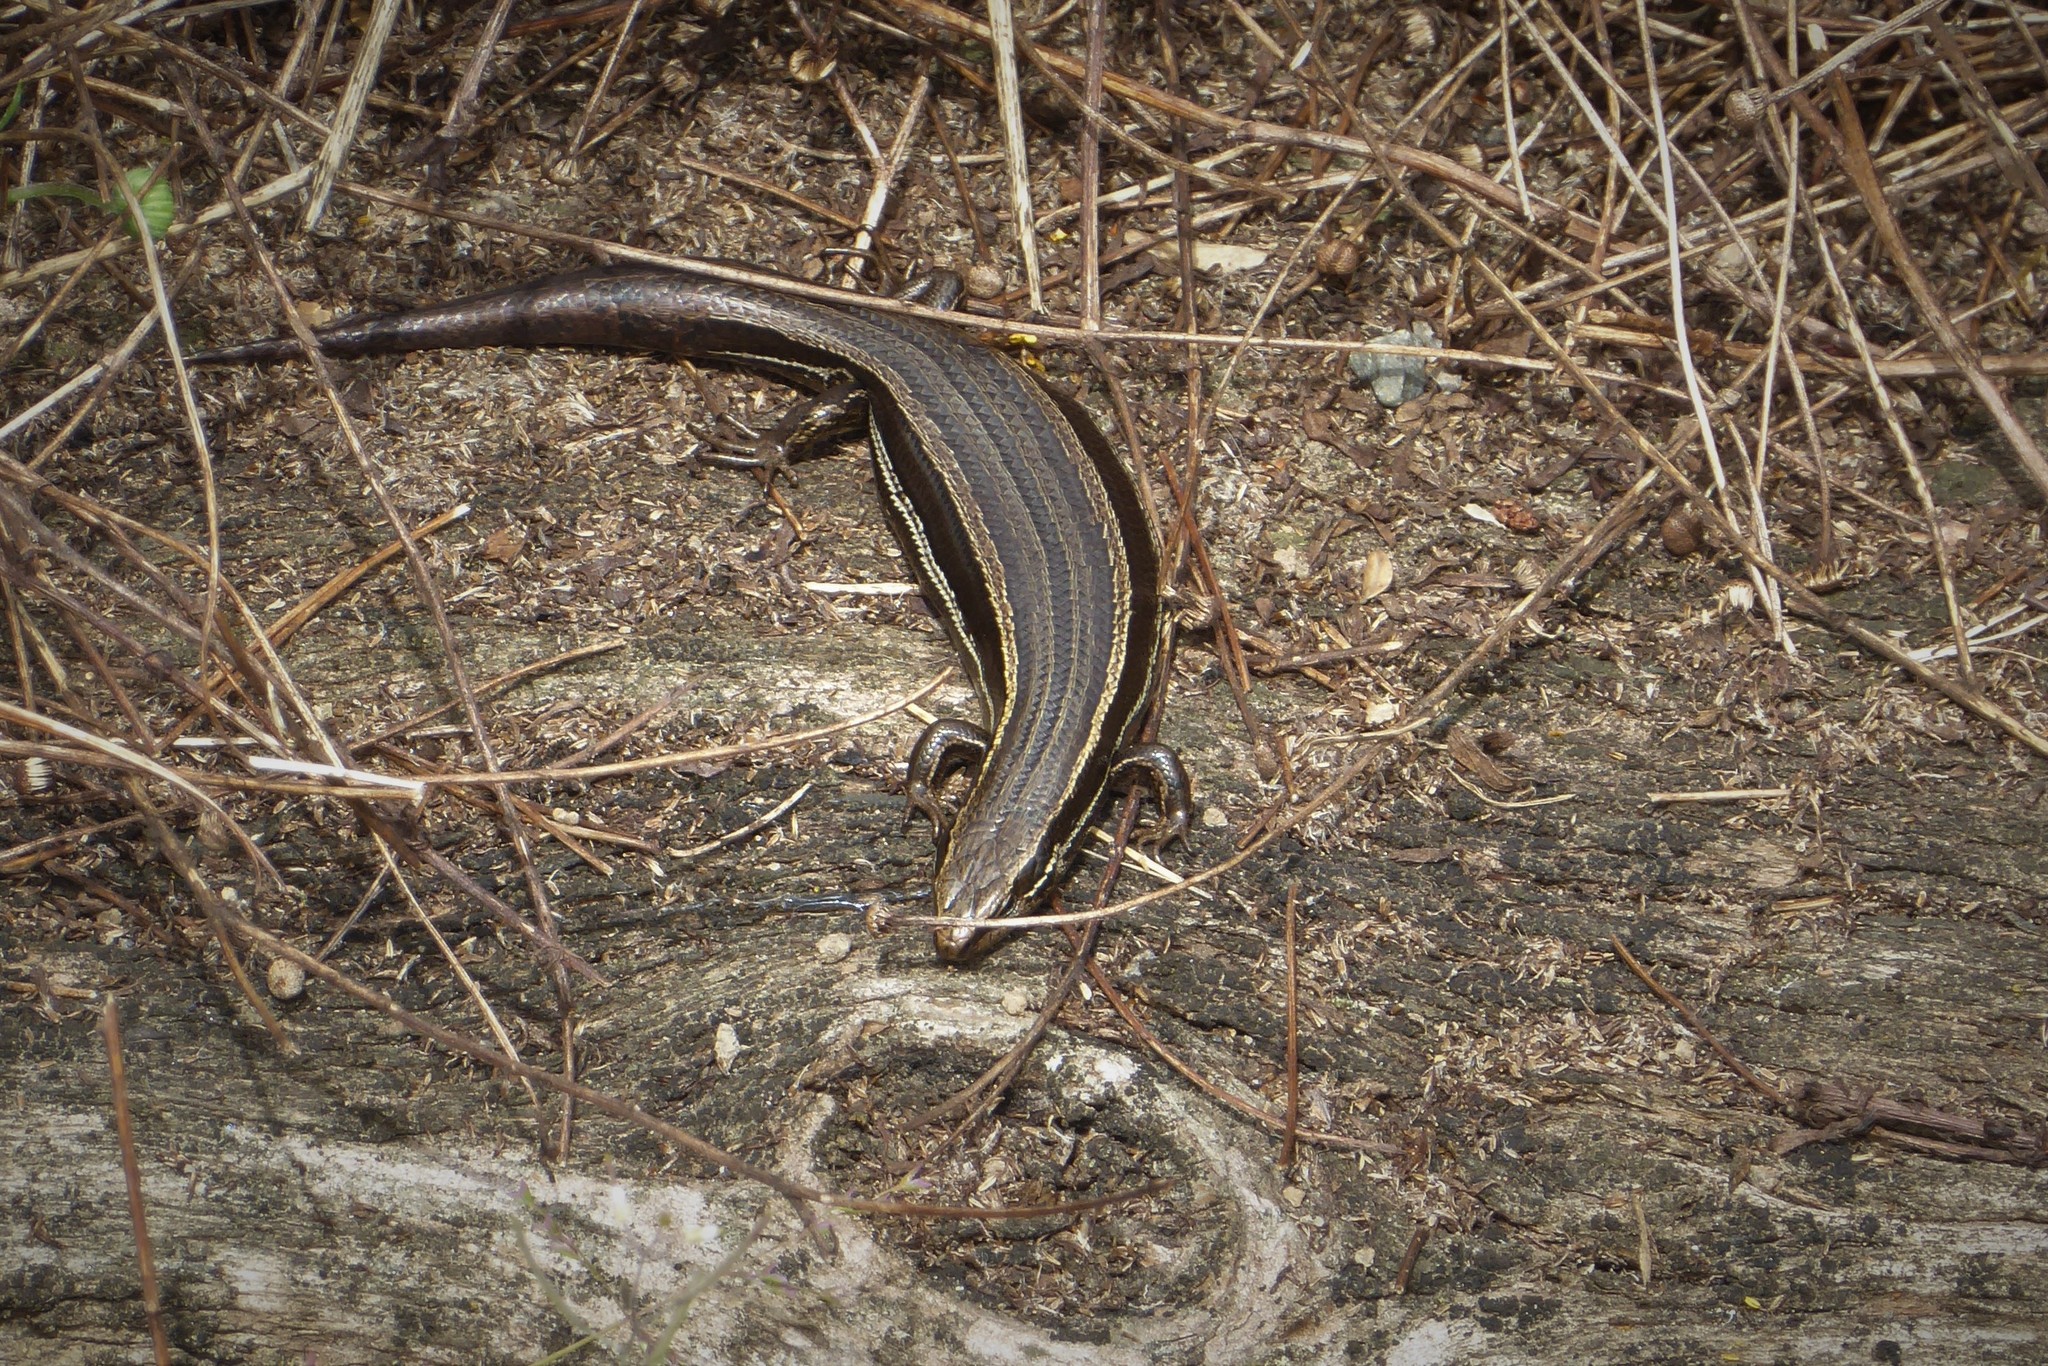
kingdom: Animalia
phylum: Chordata
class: Squamata
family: Scincidae
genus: Oligosoma
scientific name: Oligosoma polychroma
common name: Common new zealand skink
